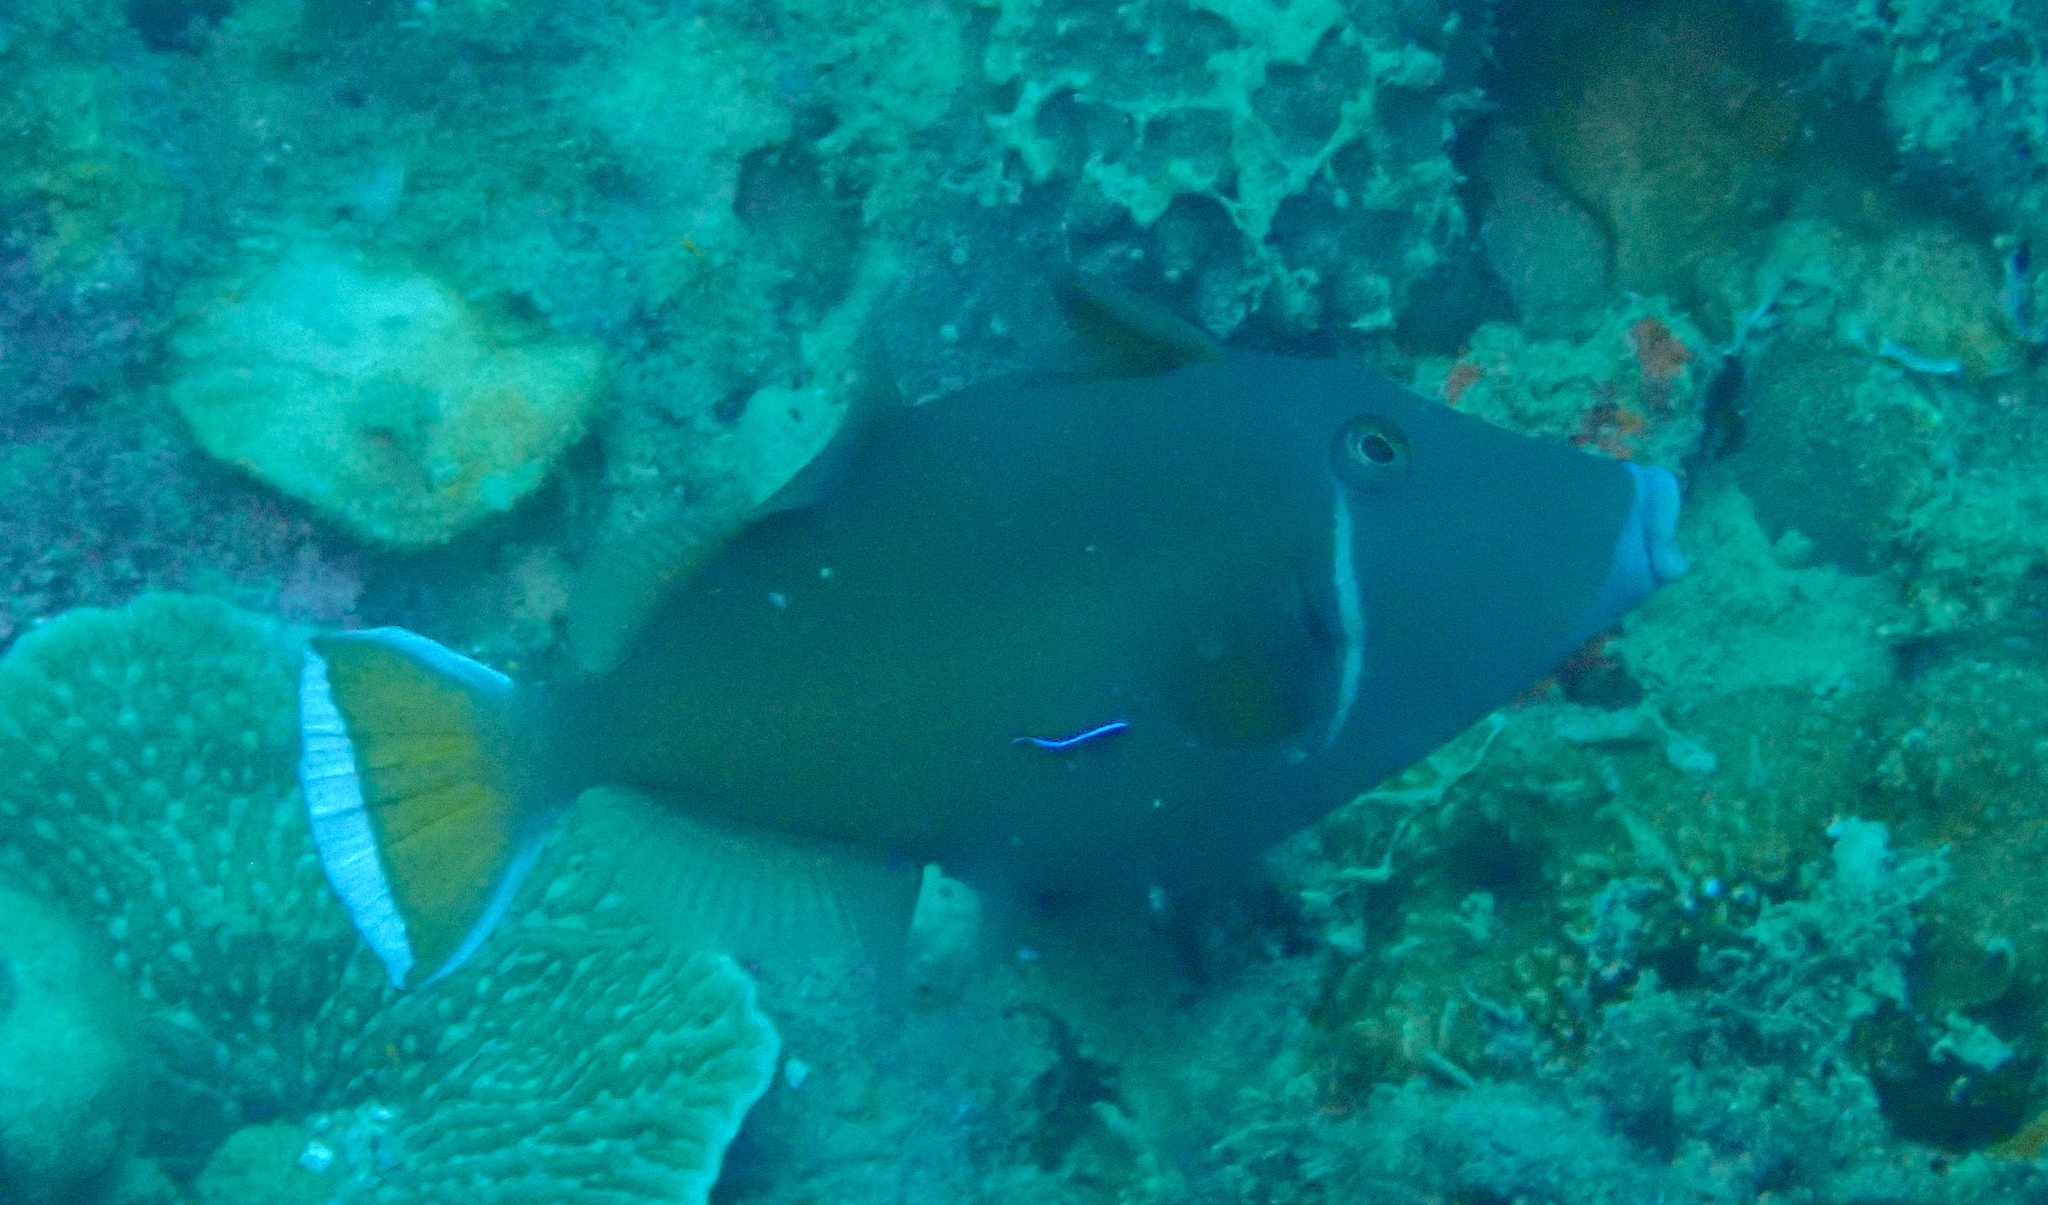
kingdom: Animalia
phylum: Chordata
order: Tetraodontiformes
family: Balistidae
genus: Sufflamen
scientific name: Sufflamen chrysopterum
